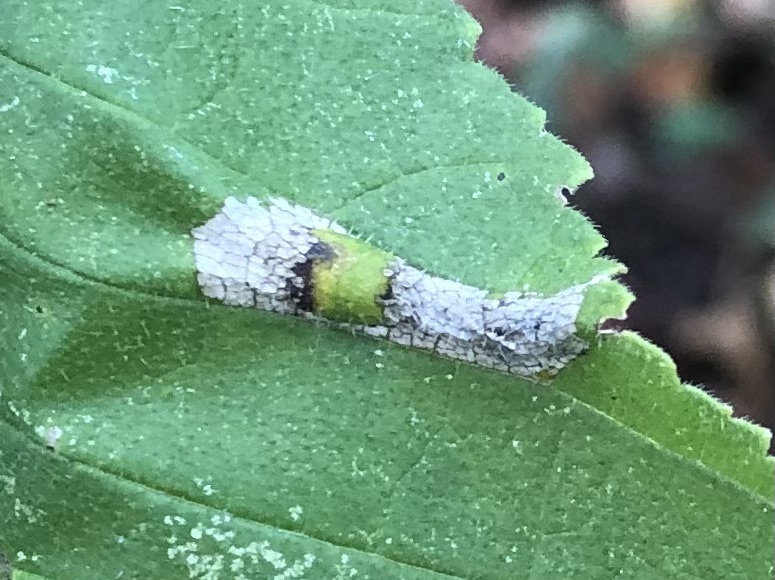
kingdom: Animalia
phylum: Arthropoda
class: Insecta
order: Lepidoptera
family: Gracillariidae
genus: Phyllonorycter
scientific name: Phyllonorycter argentinotella
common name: Golden elm leafminer
